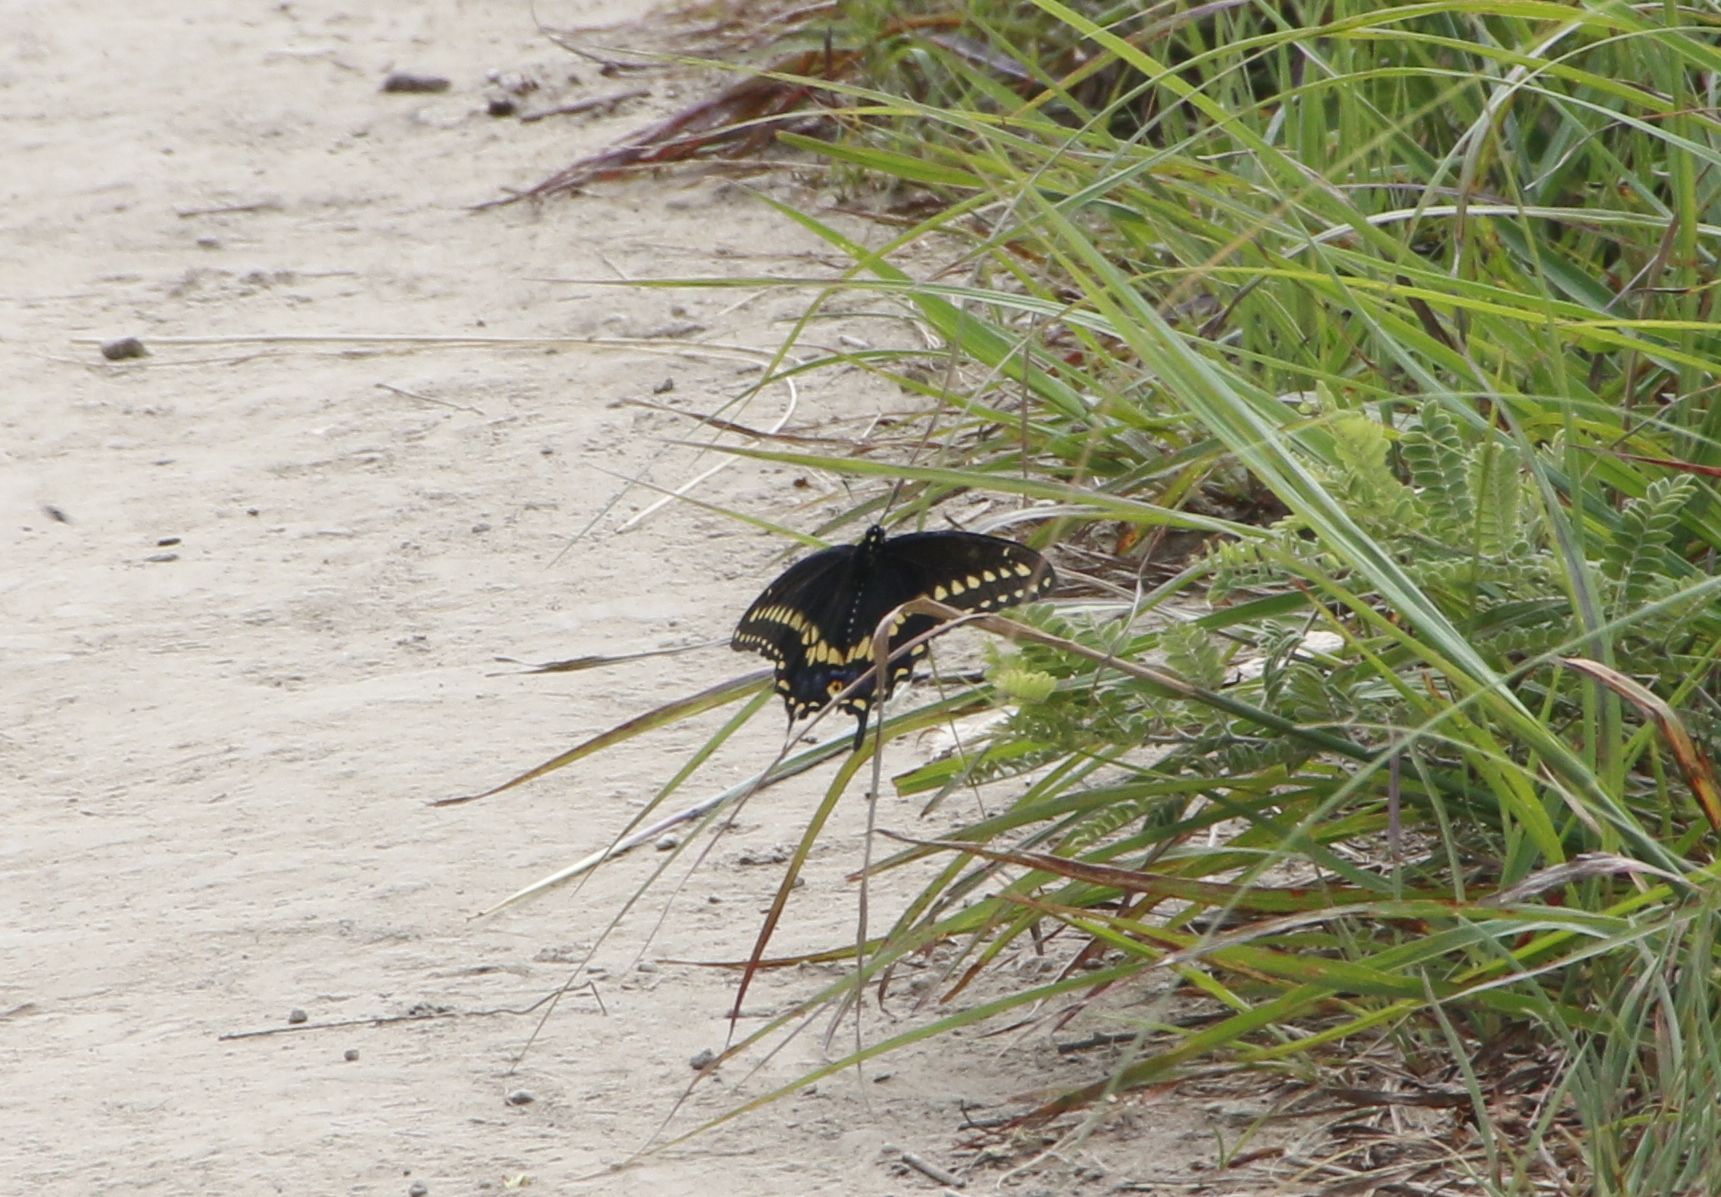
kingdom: Animalia
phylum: Arthropoda
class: Insecta
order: Lepidoptera
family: Papilionidae
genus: Papilio
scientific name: Papilio polyxenes
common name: Black swallowtail
